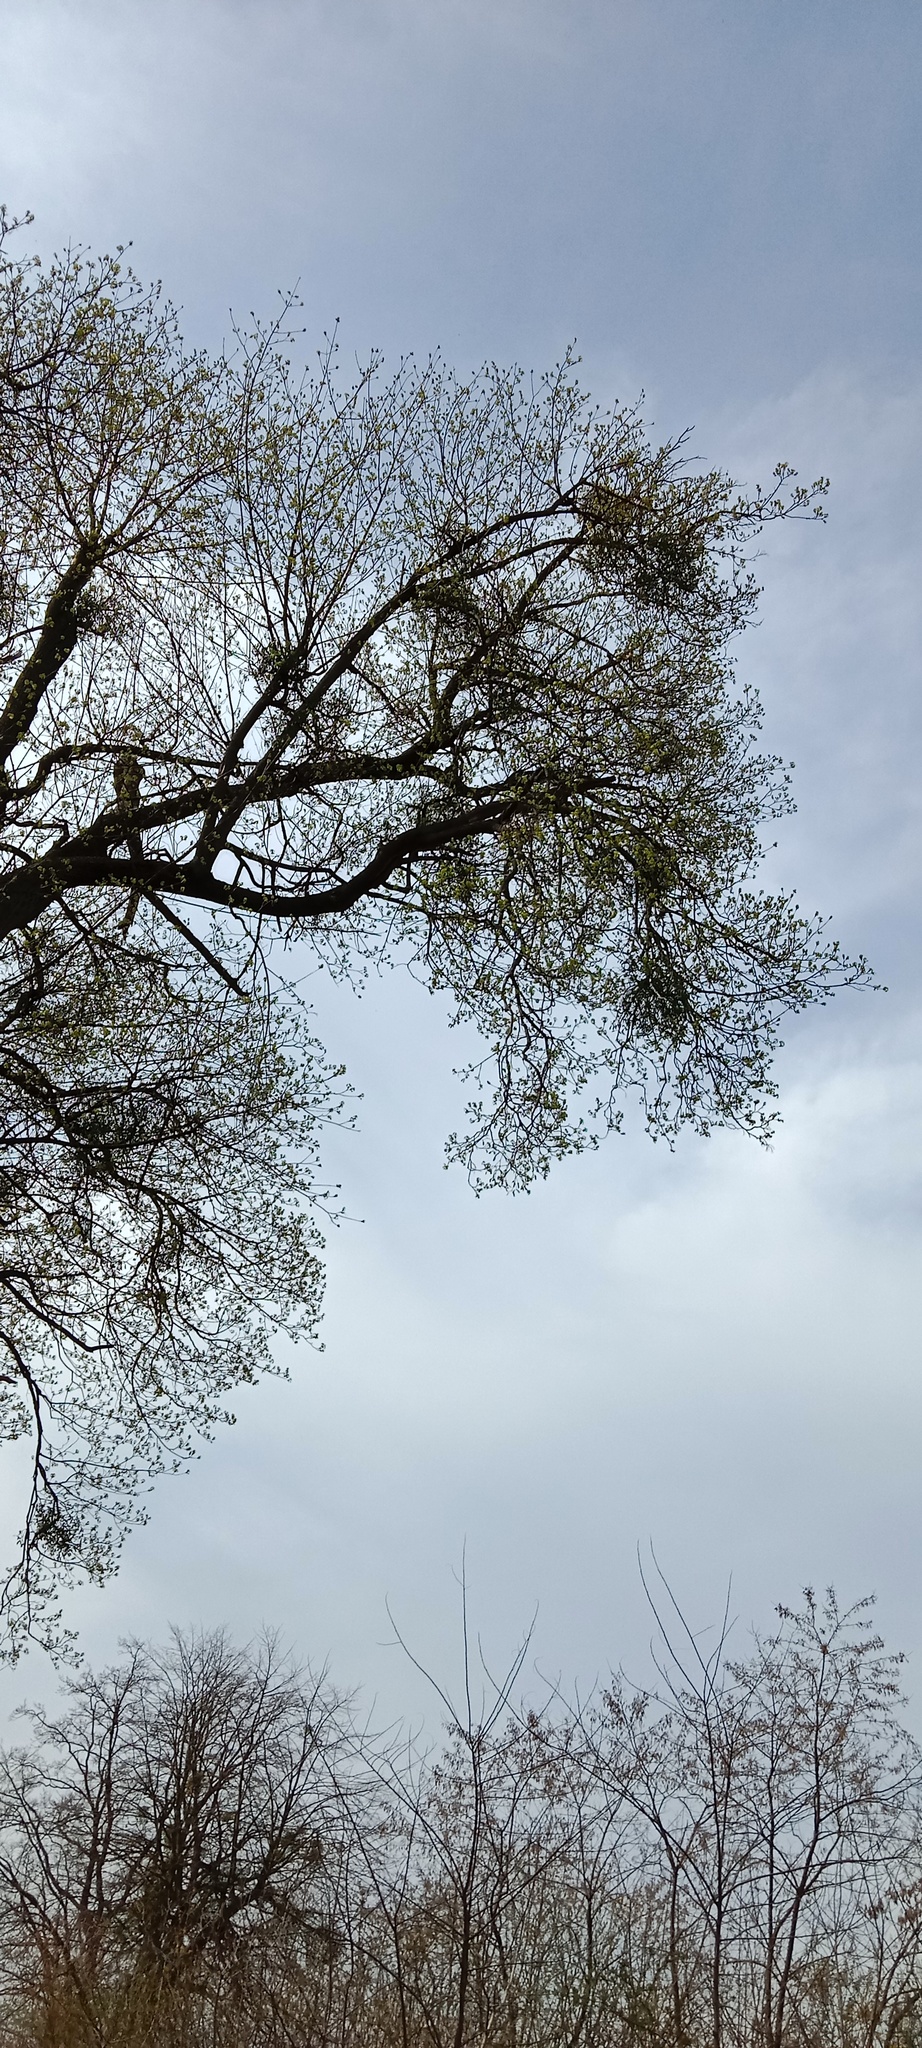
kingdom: Plantae
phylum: Tracheophyta
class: Magnoliopsida
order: Santalales
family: Viscaceae
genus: Viscum
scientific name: Viscum album
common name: Mistletoe
